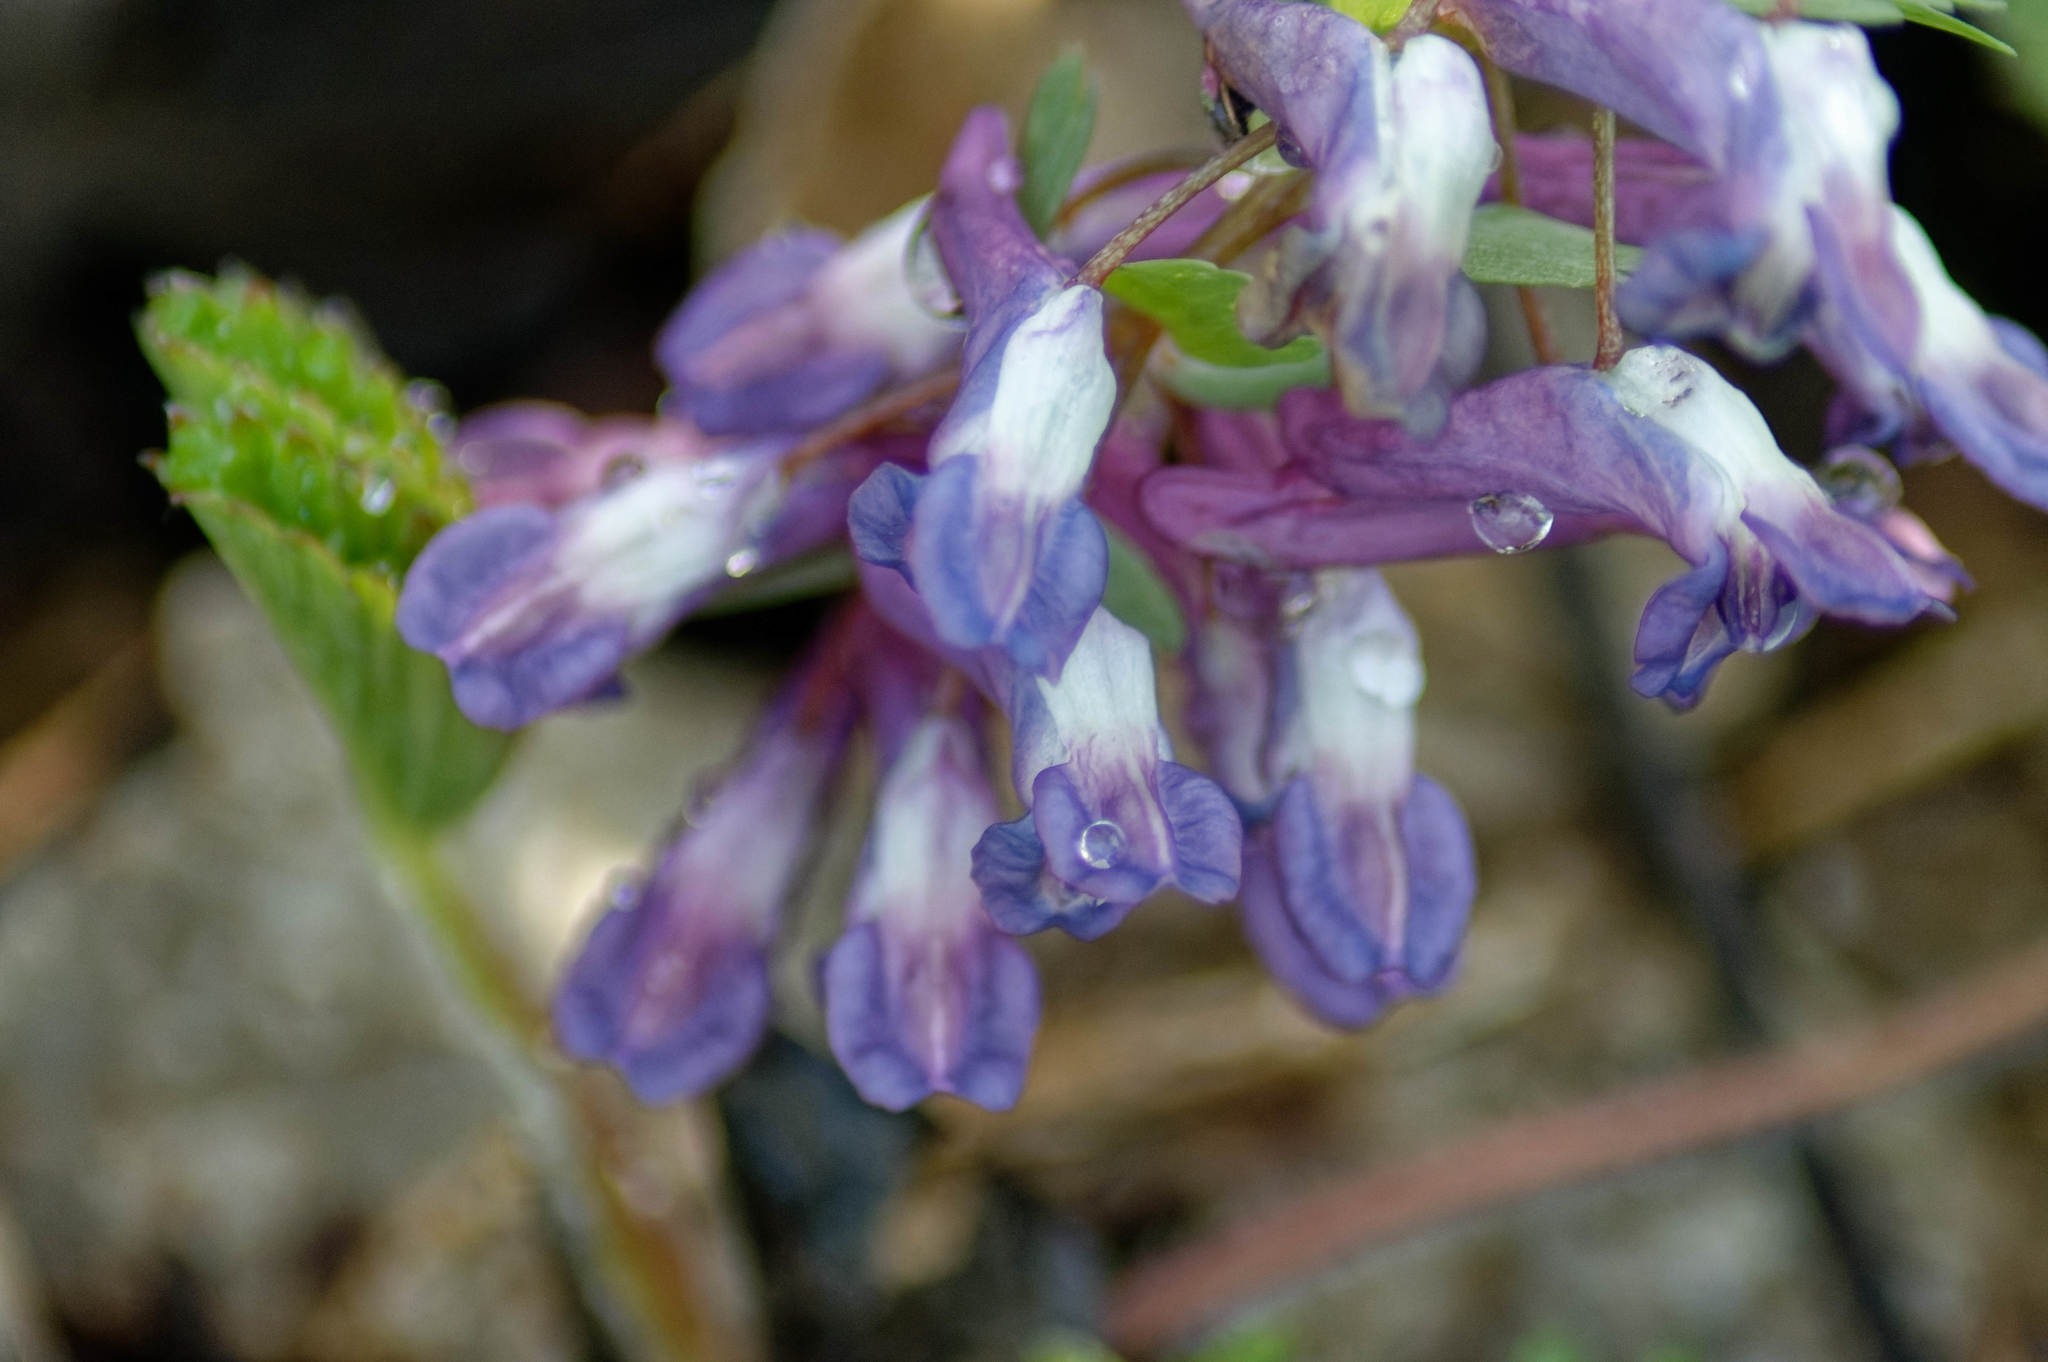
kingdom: Plantae
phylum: Tracheophyta
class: Magnoliopsida
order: Ranunculales
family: Papaveraceae
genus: Corydalis
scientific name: Corydalis solida
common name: Bird-in-a-bush
